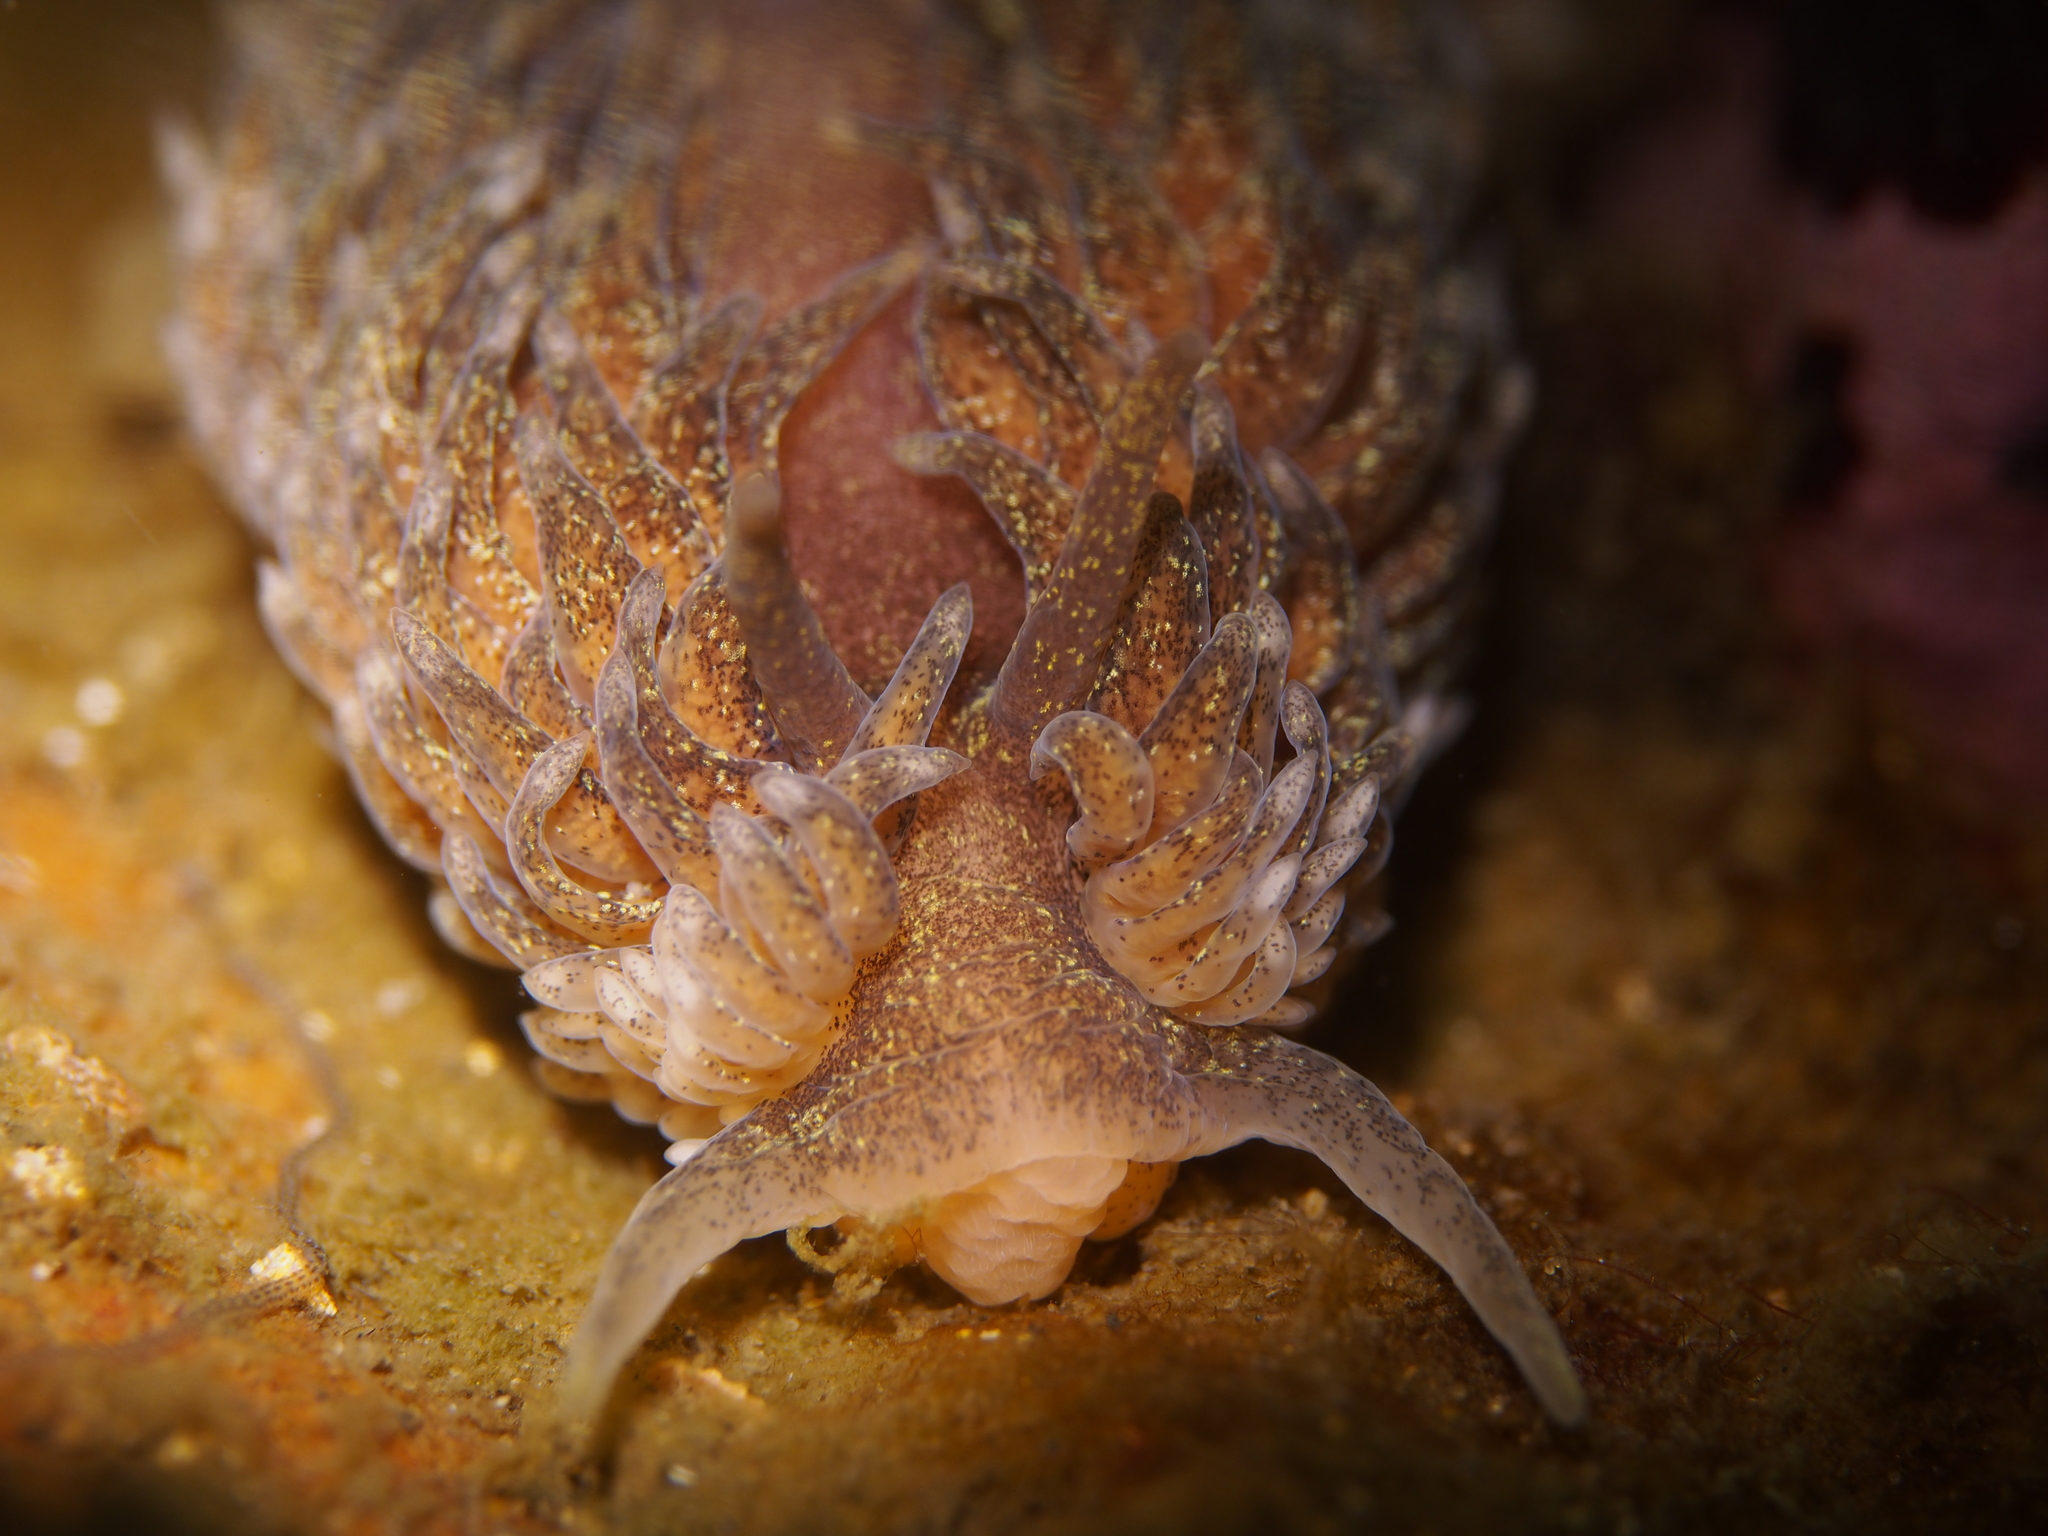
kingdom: Animalia
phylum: Mollusca
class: Gastropoda
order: Nudibranchia
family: Aeolidiidae
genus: Aeolidia
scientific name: Aeolidia papillosa
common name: Common grey sea slug
